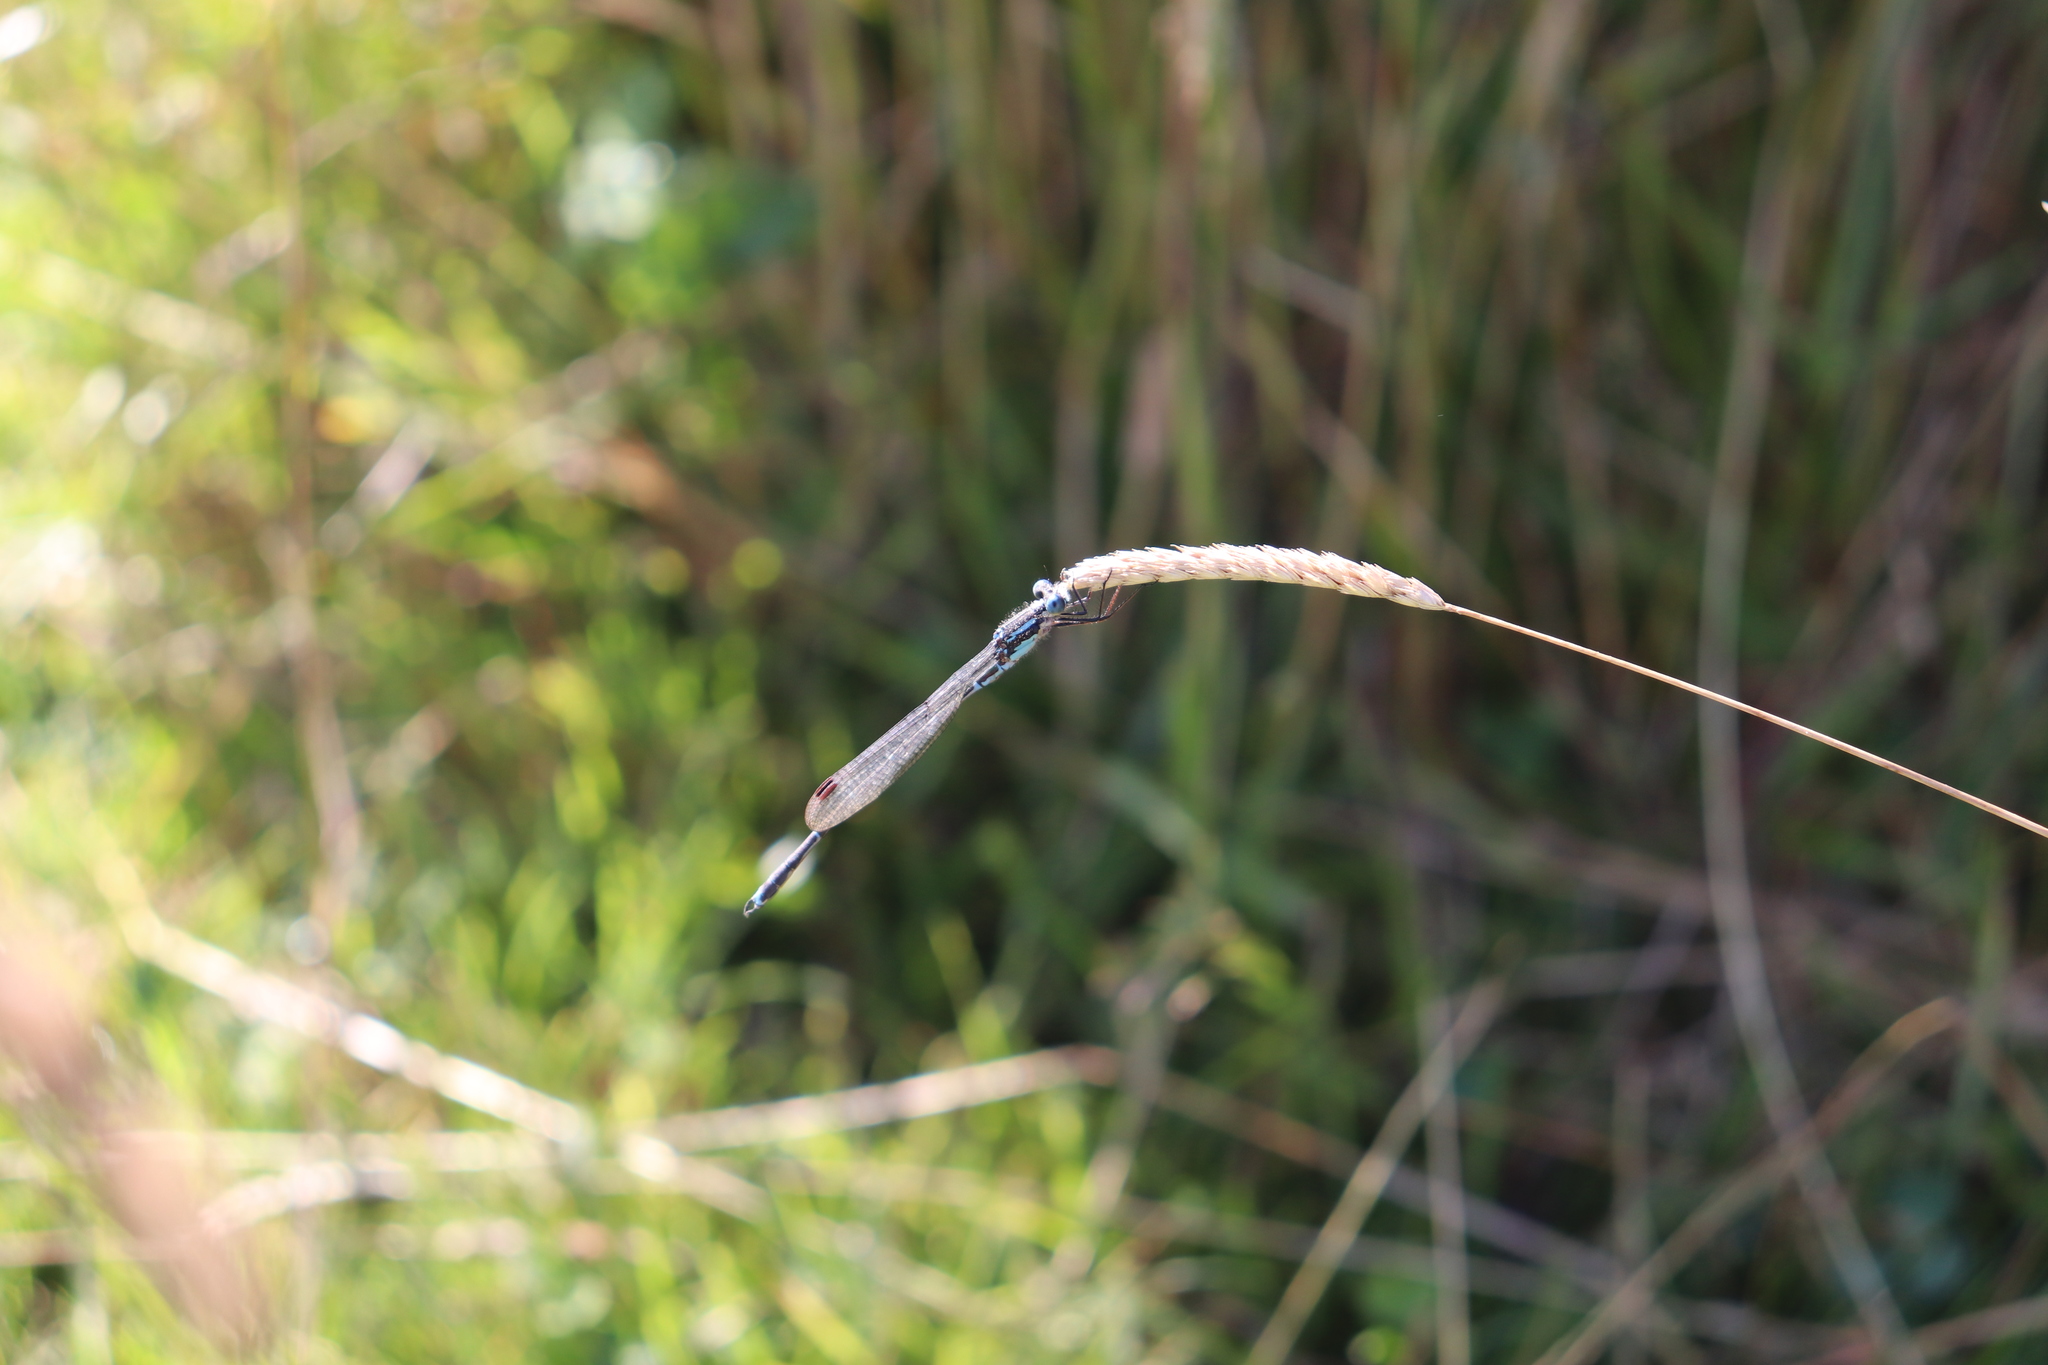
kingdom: Animalia
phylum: Arthropoda
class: Insecta
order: Odonata
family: Lestidae
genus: Austrolestes
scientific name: Austrolestes colensonis
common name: Blue damselfly
